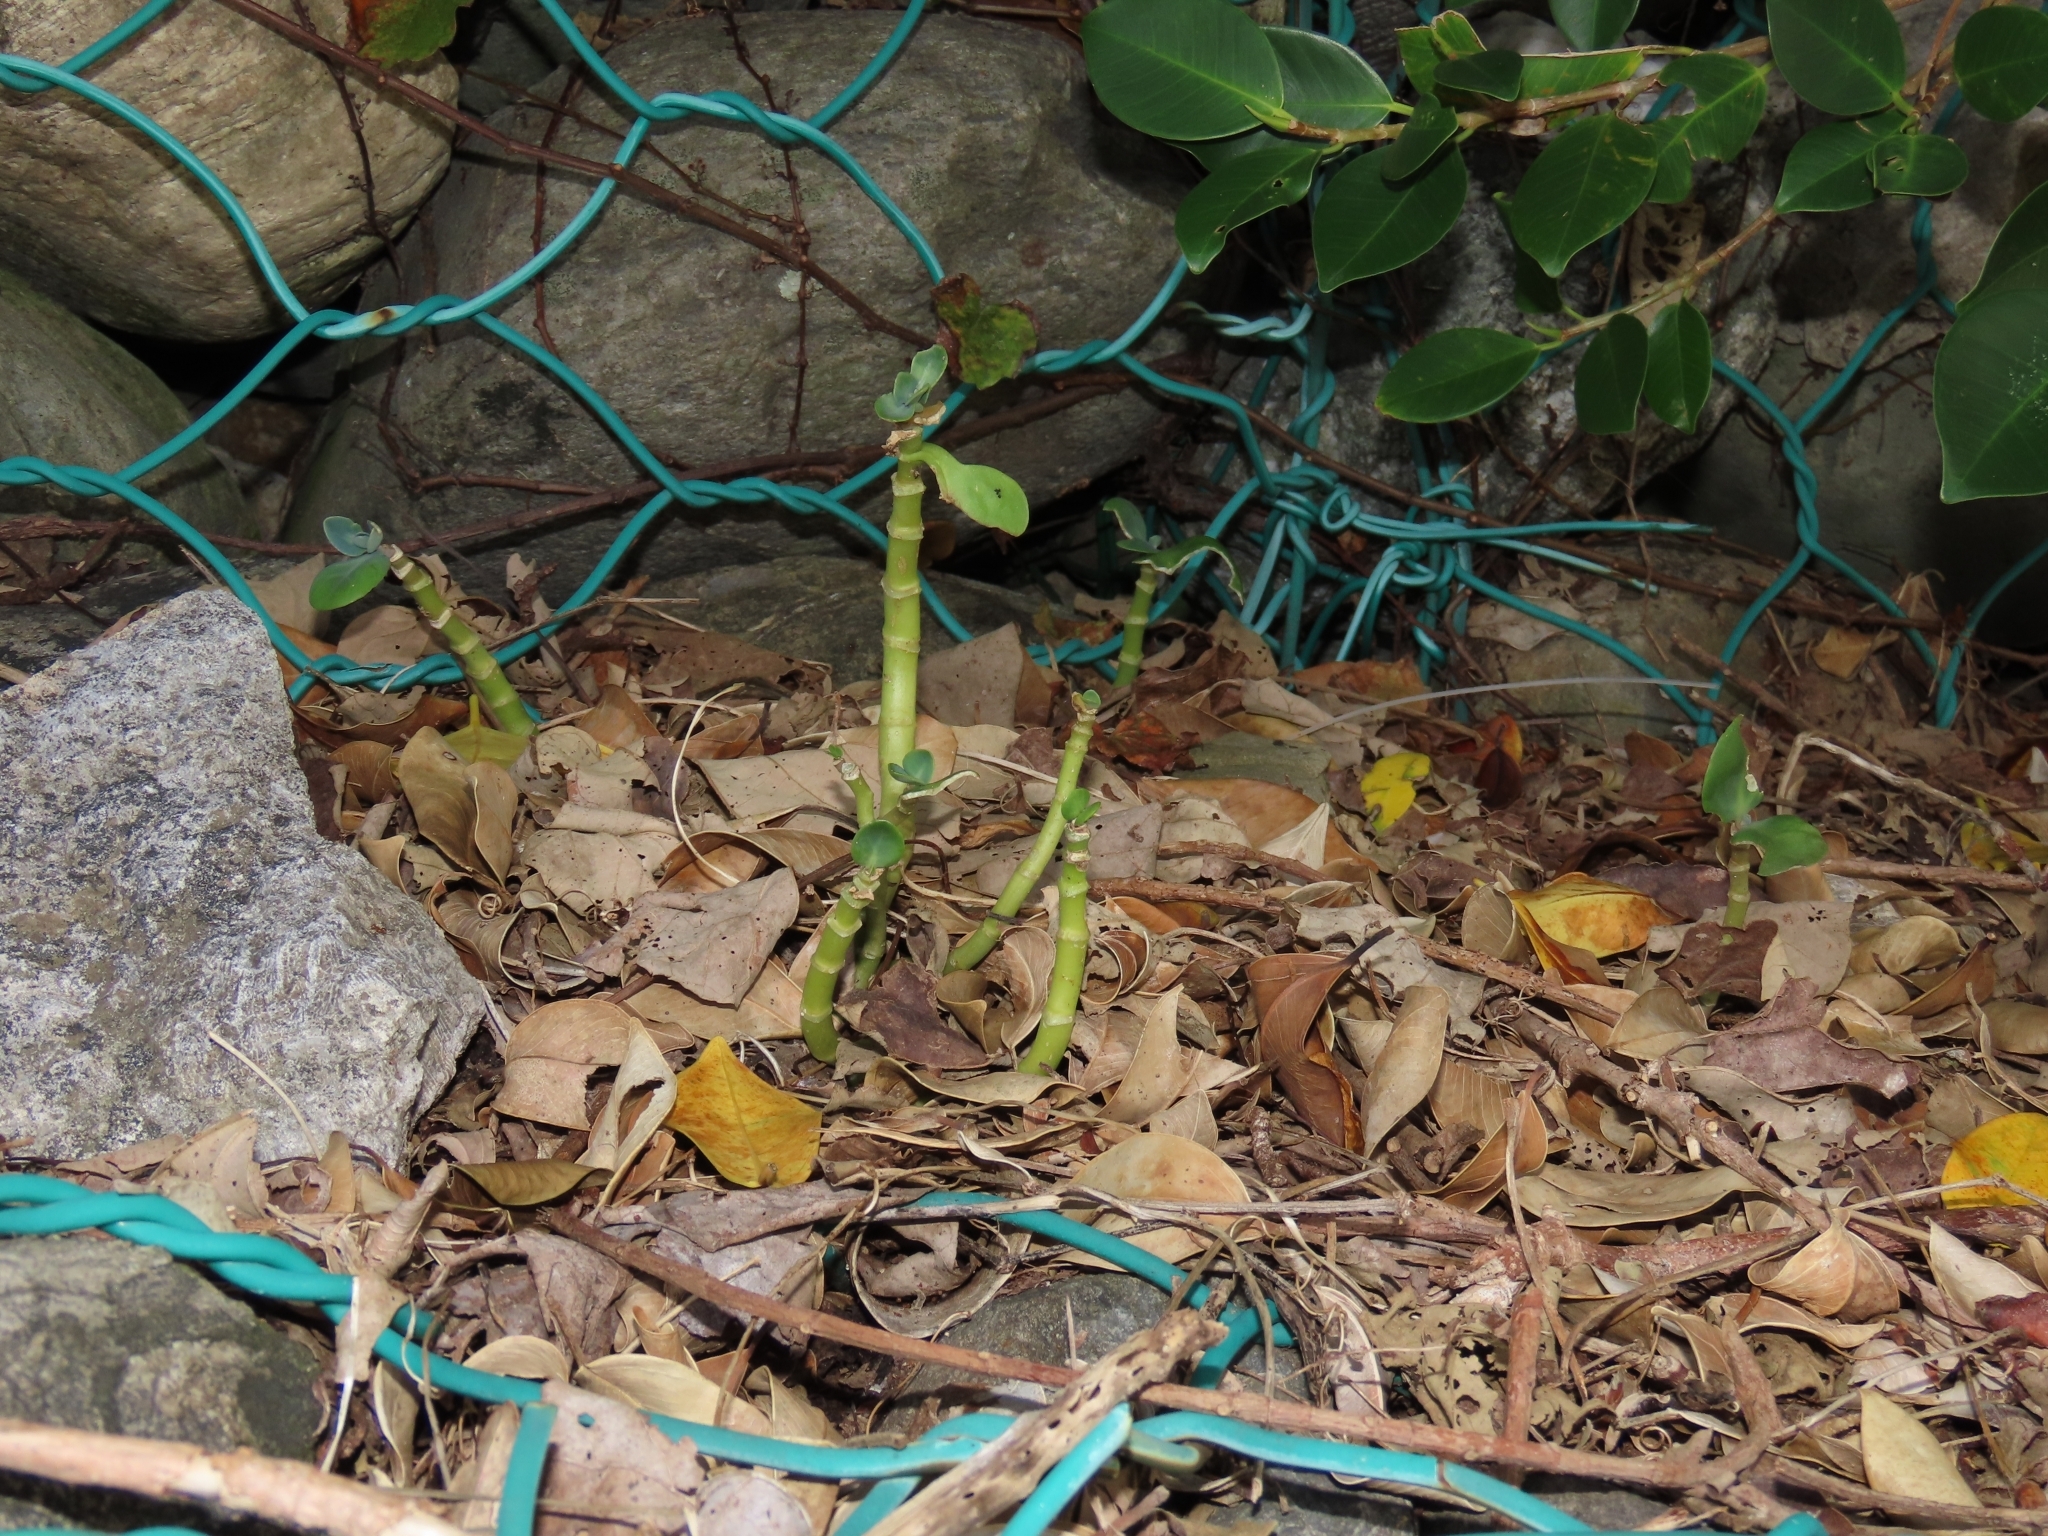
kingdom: Plantae
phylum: Tracheophyta
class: Magnoliopsida
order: Saxifragales
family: Crassulaceae
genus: Kalanchoe
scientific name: Kalanchoe tashiroi
